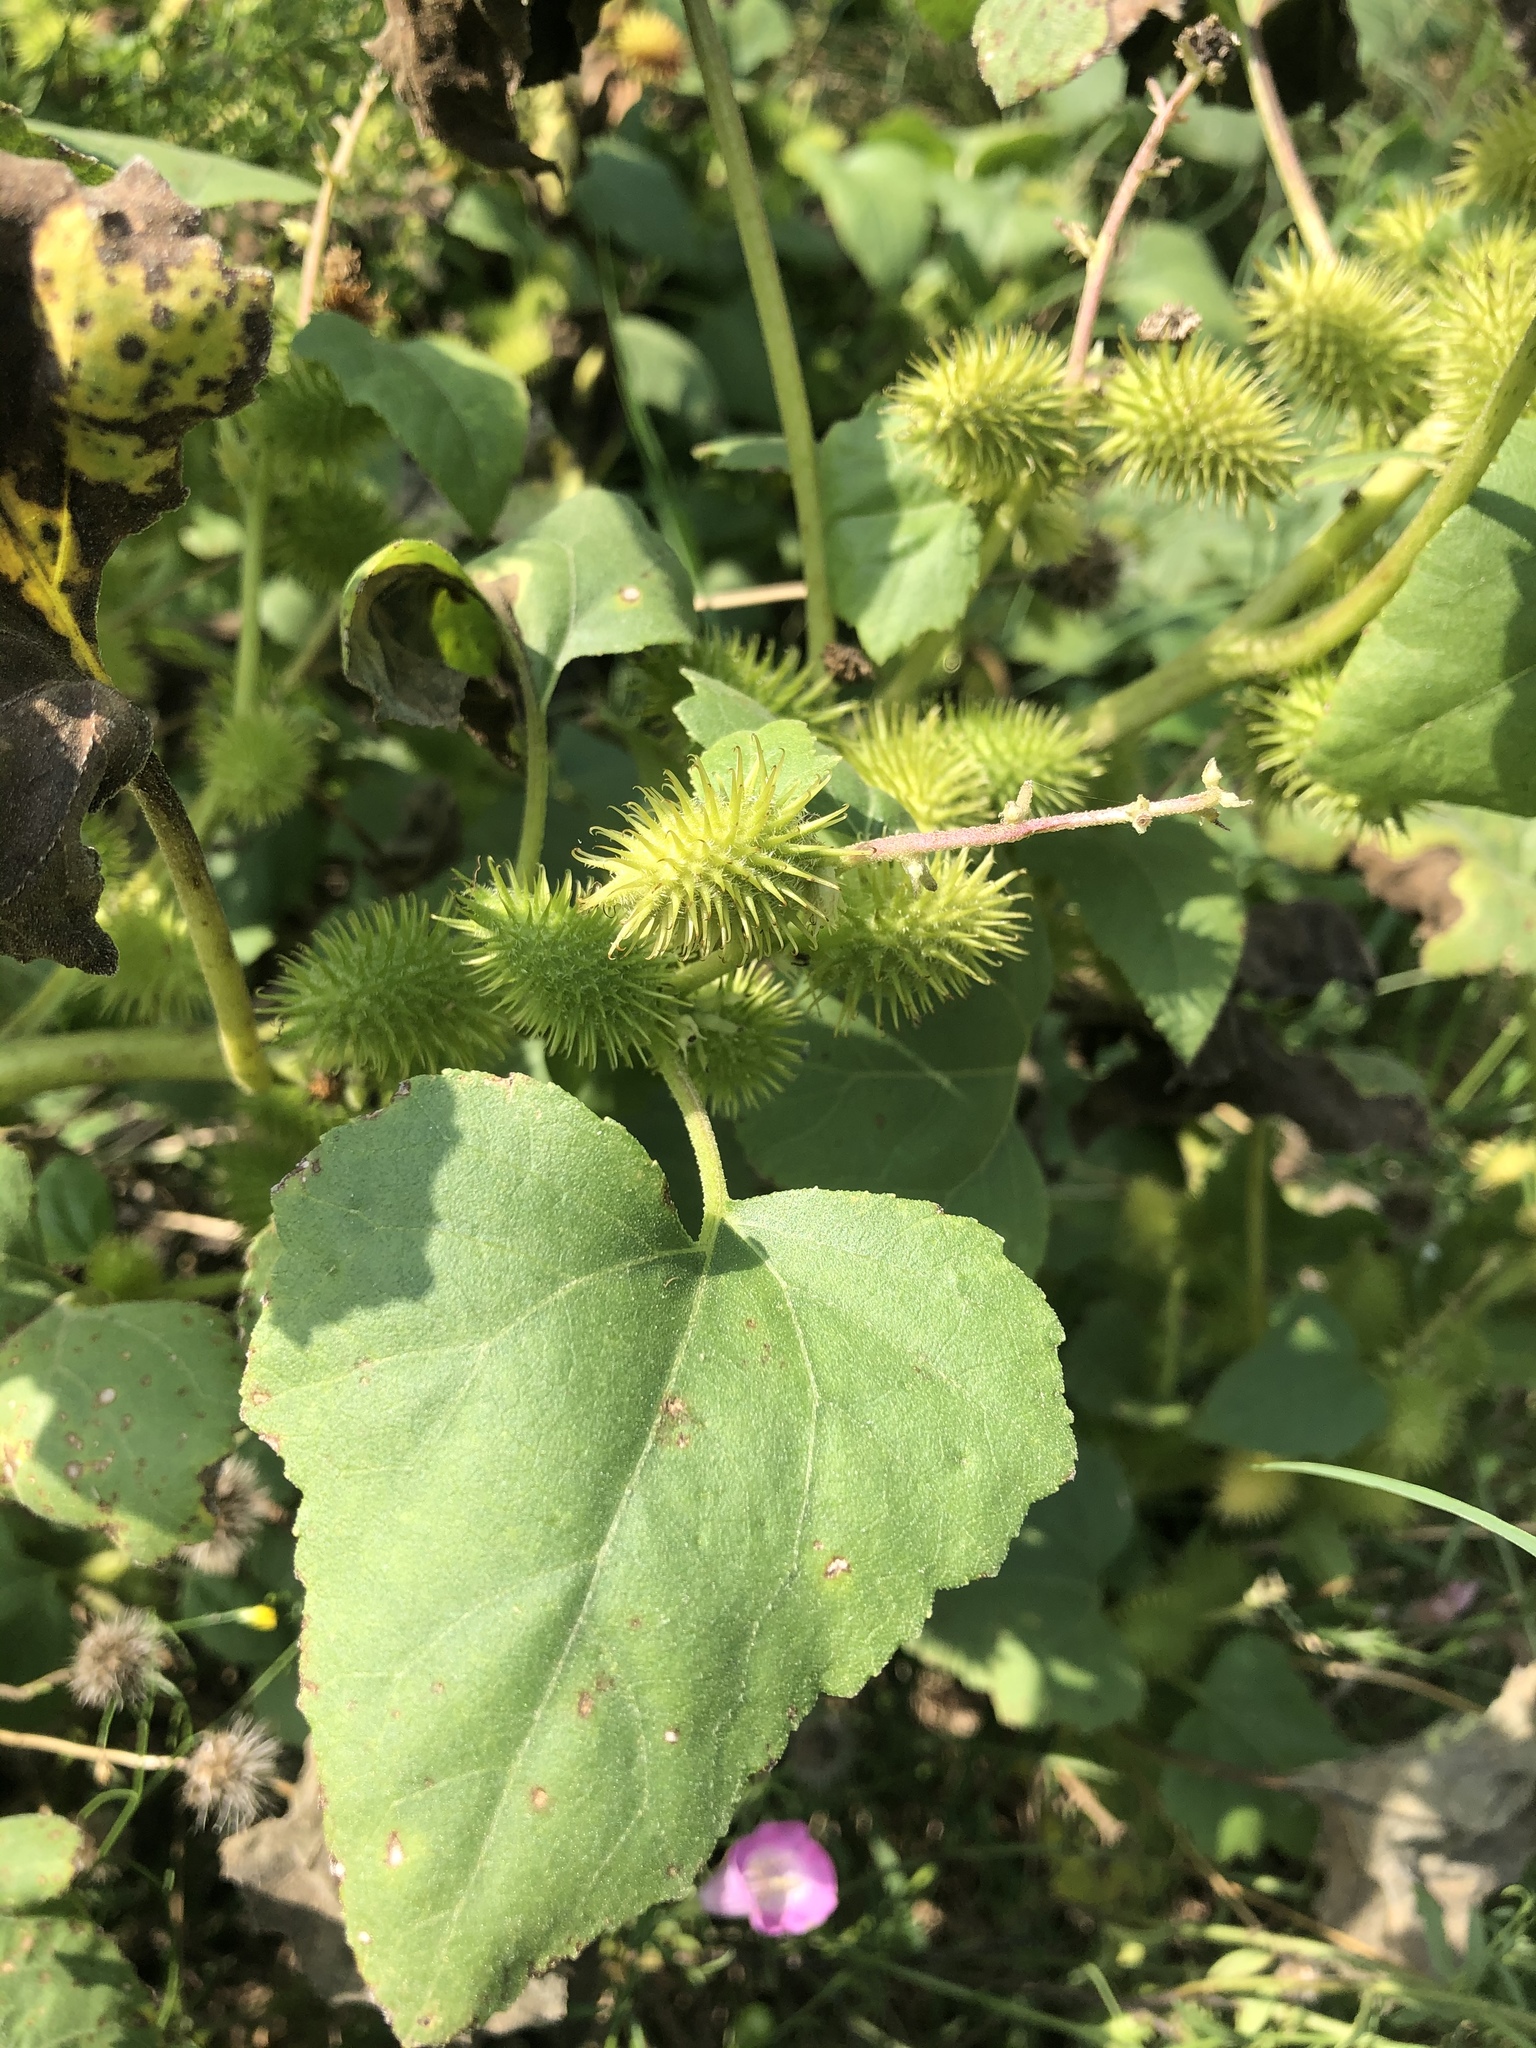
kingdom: Plantae
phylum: Tracheophyta
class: Magnoliopsida
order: Asterales
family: Asteraceae
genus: Xanthium
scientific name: Xanthium strumarium
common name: Rough cocklebur
